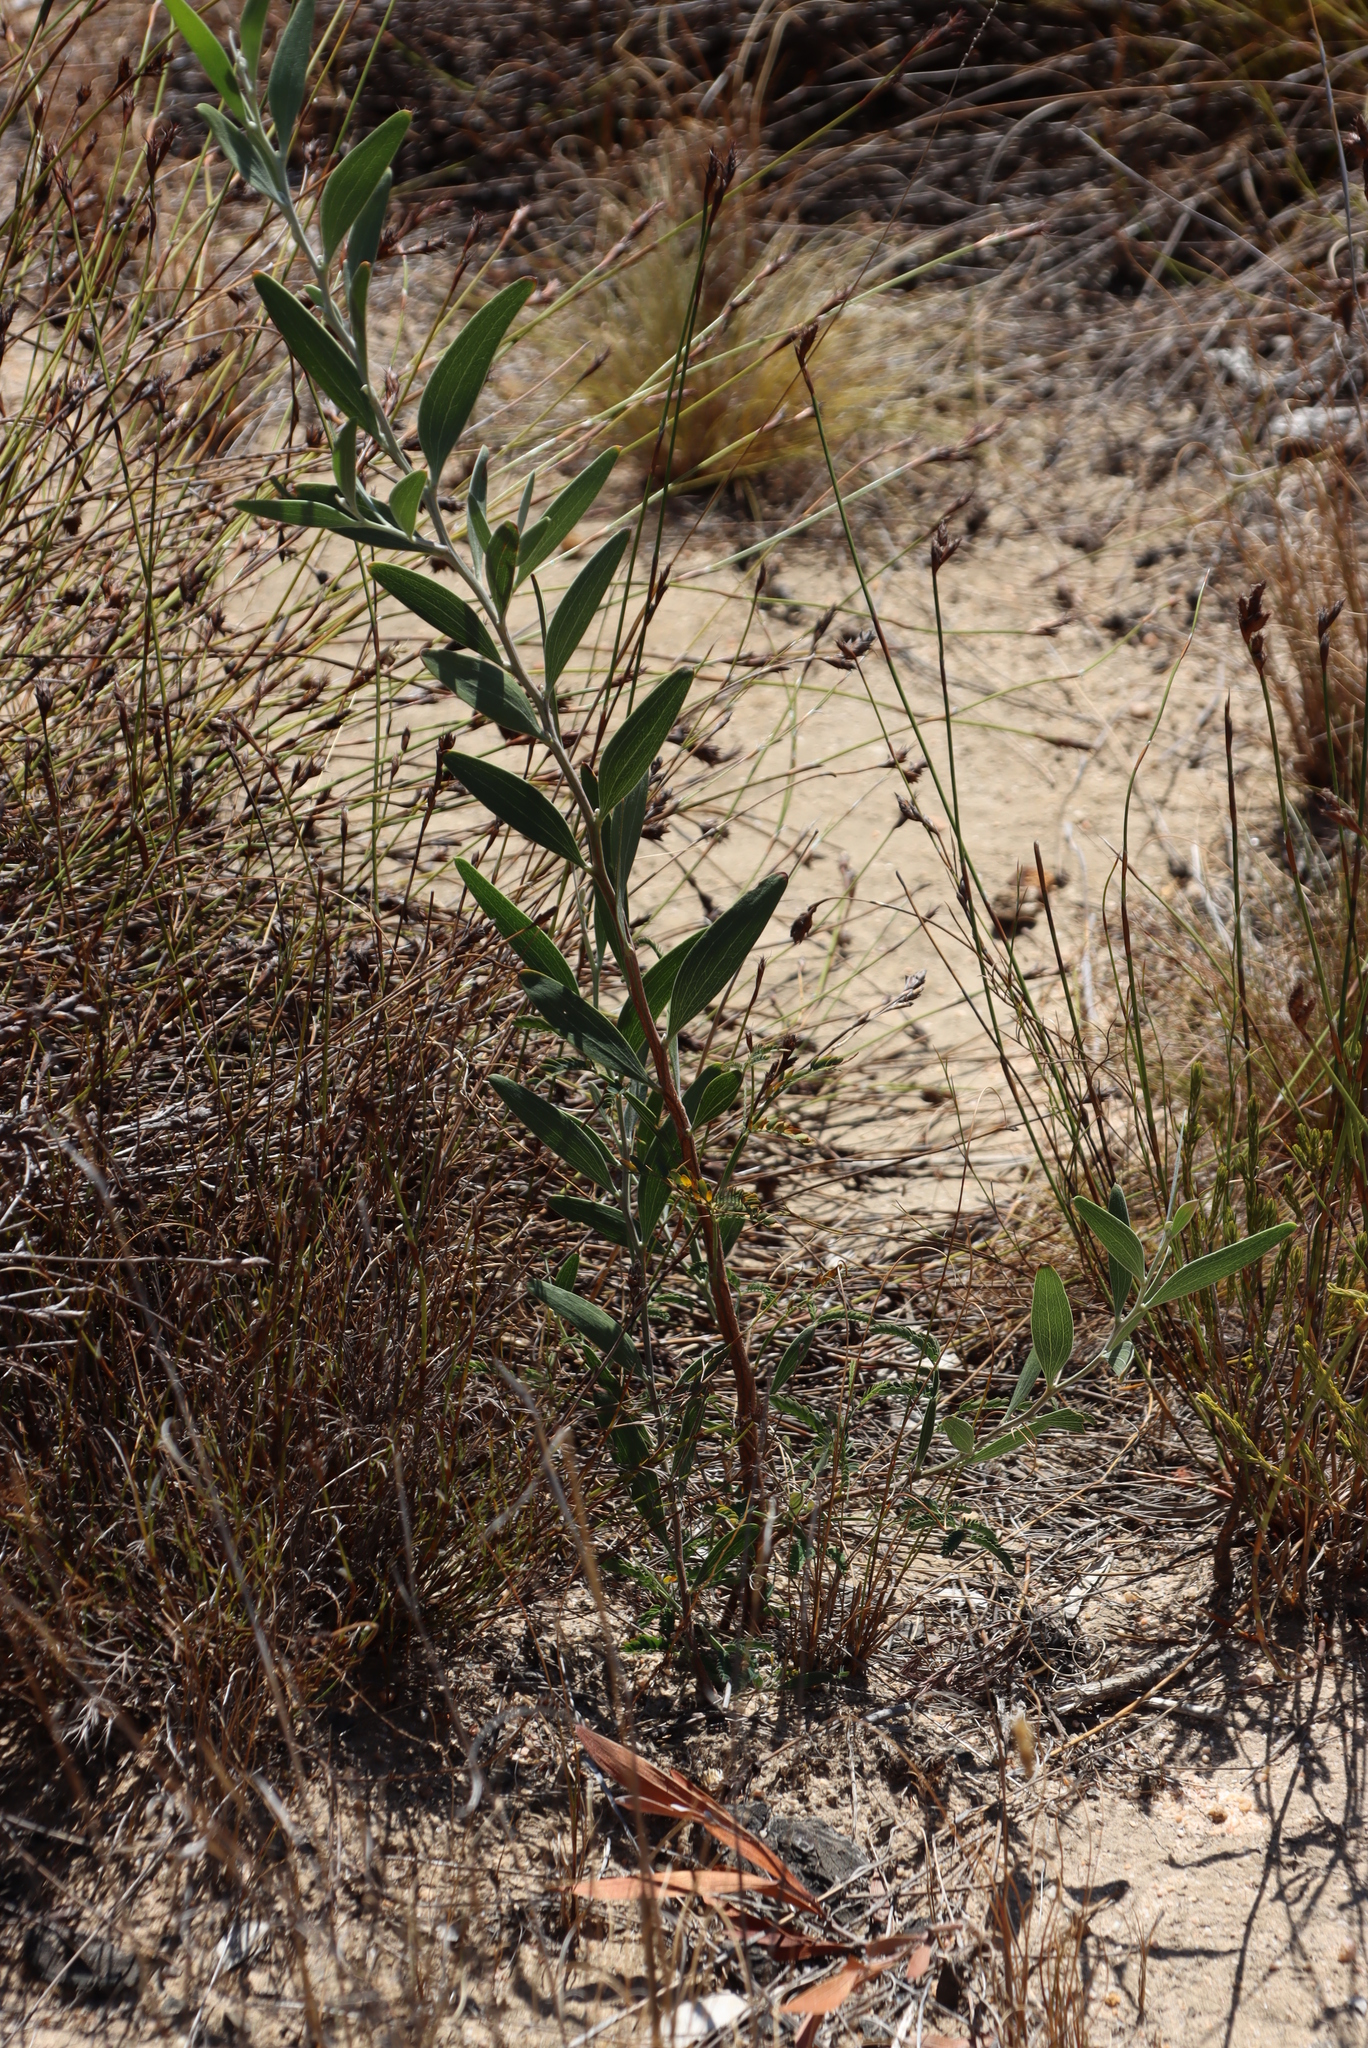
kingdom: Plantae
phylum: Tracheophyta
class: Magnoliopsida
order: Fabales
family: Fabaceae
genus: Acacia
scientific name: Acacia melanoxylon
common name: Blackwood
